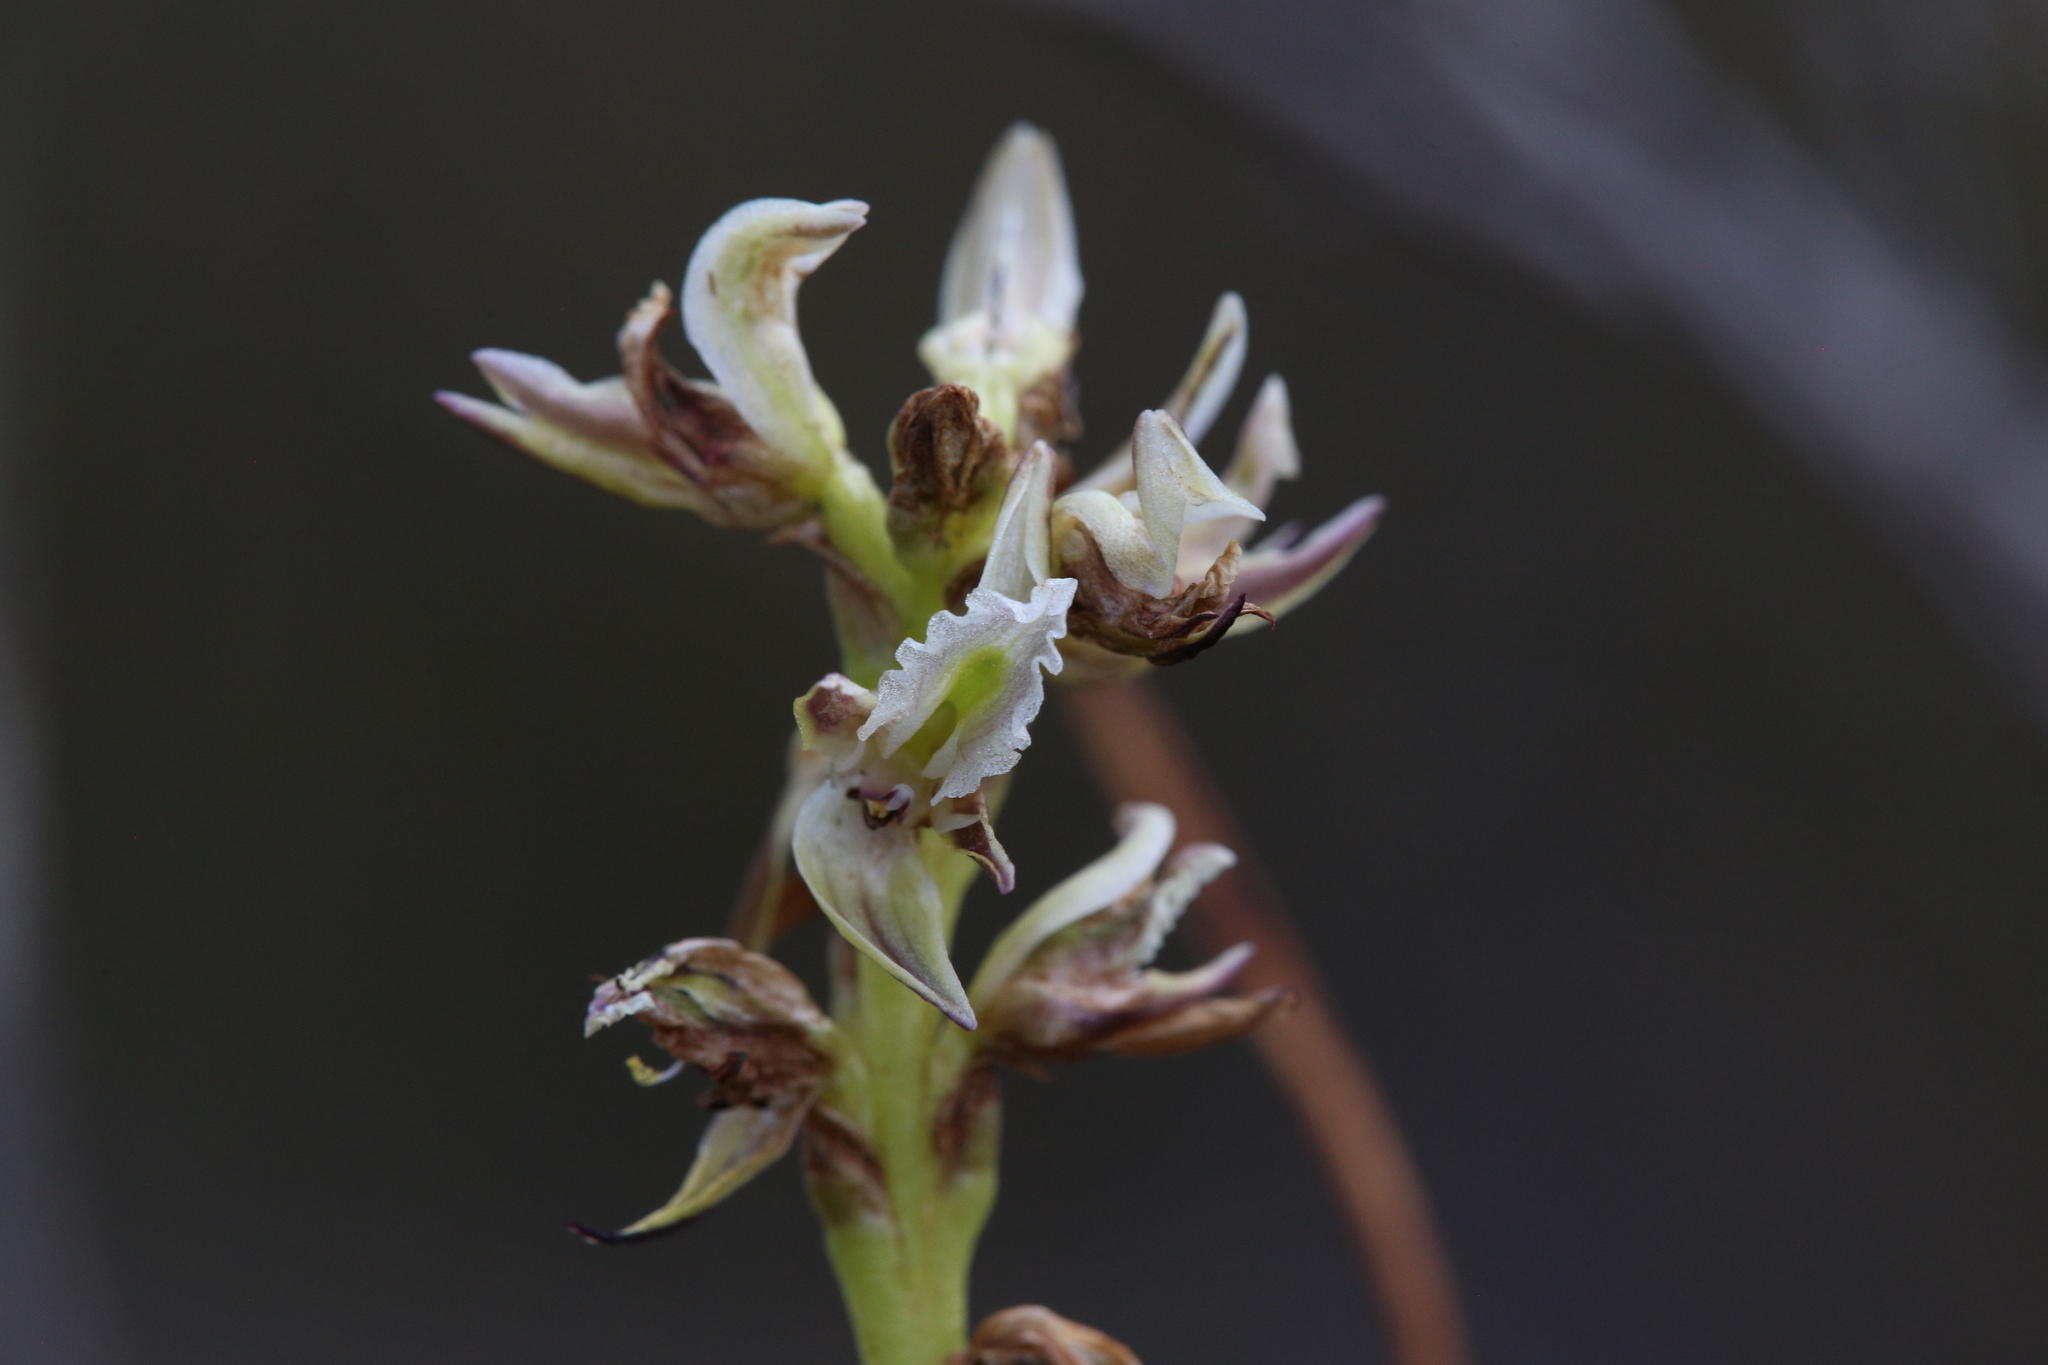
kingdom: Plantae
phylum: Tracheophyta
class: Liliopsida
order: Asparagales
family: Orchidaceae
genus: Prasophyllum
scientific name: Prasophyllum brownii
